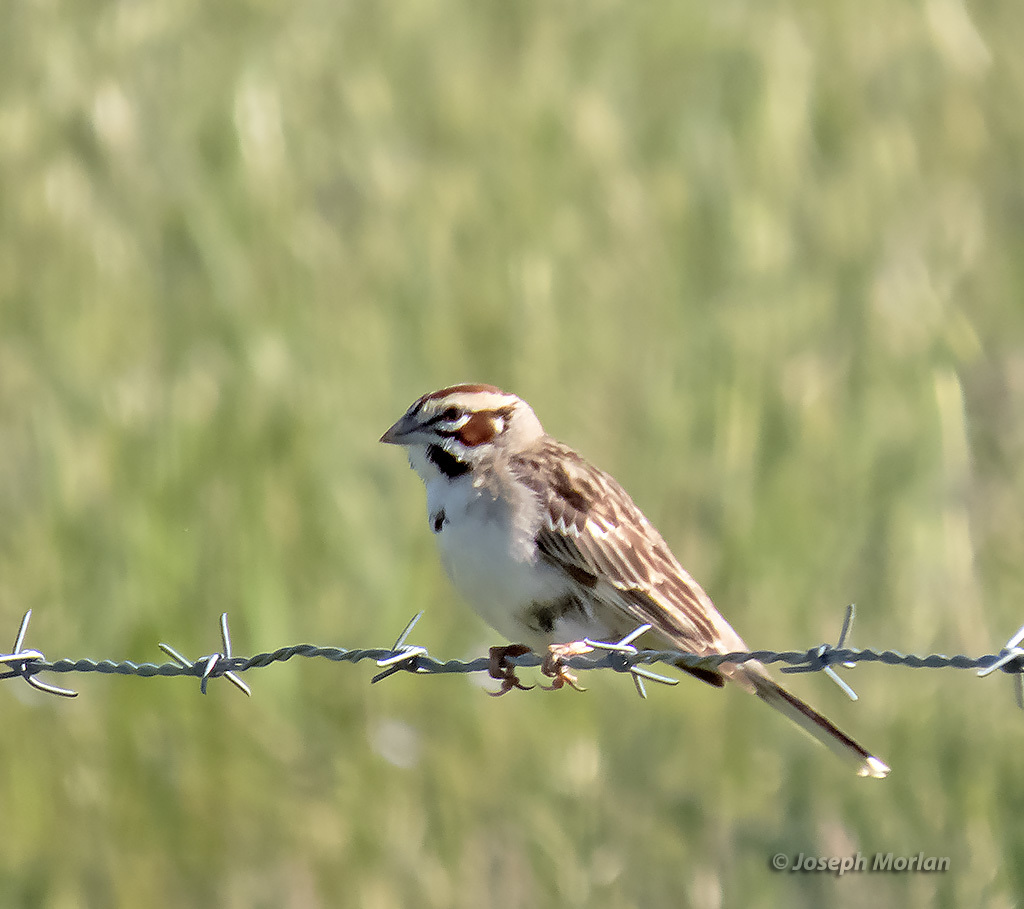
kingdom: Animalia
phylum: Chordata
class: Aves
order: Passeriformes
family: Passerellidae
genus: Chondestes
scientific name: Chondestes grammacus
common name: Lark sparrow
